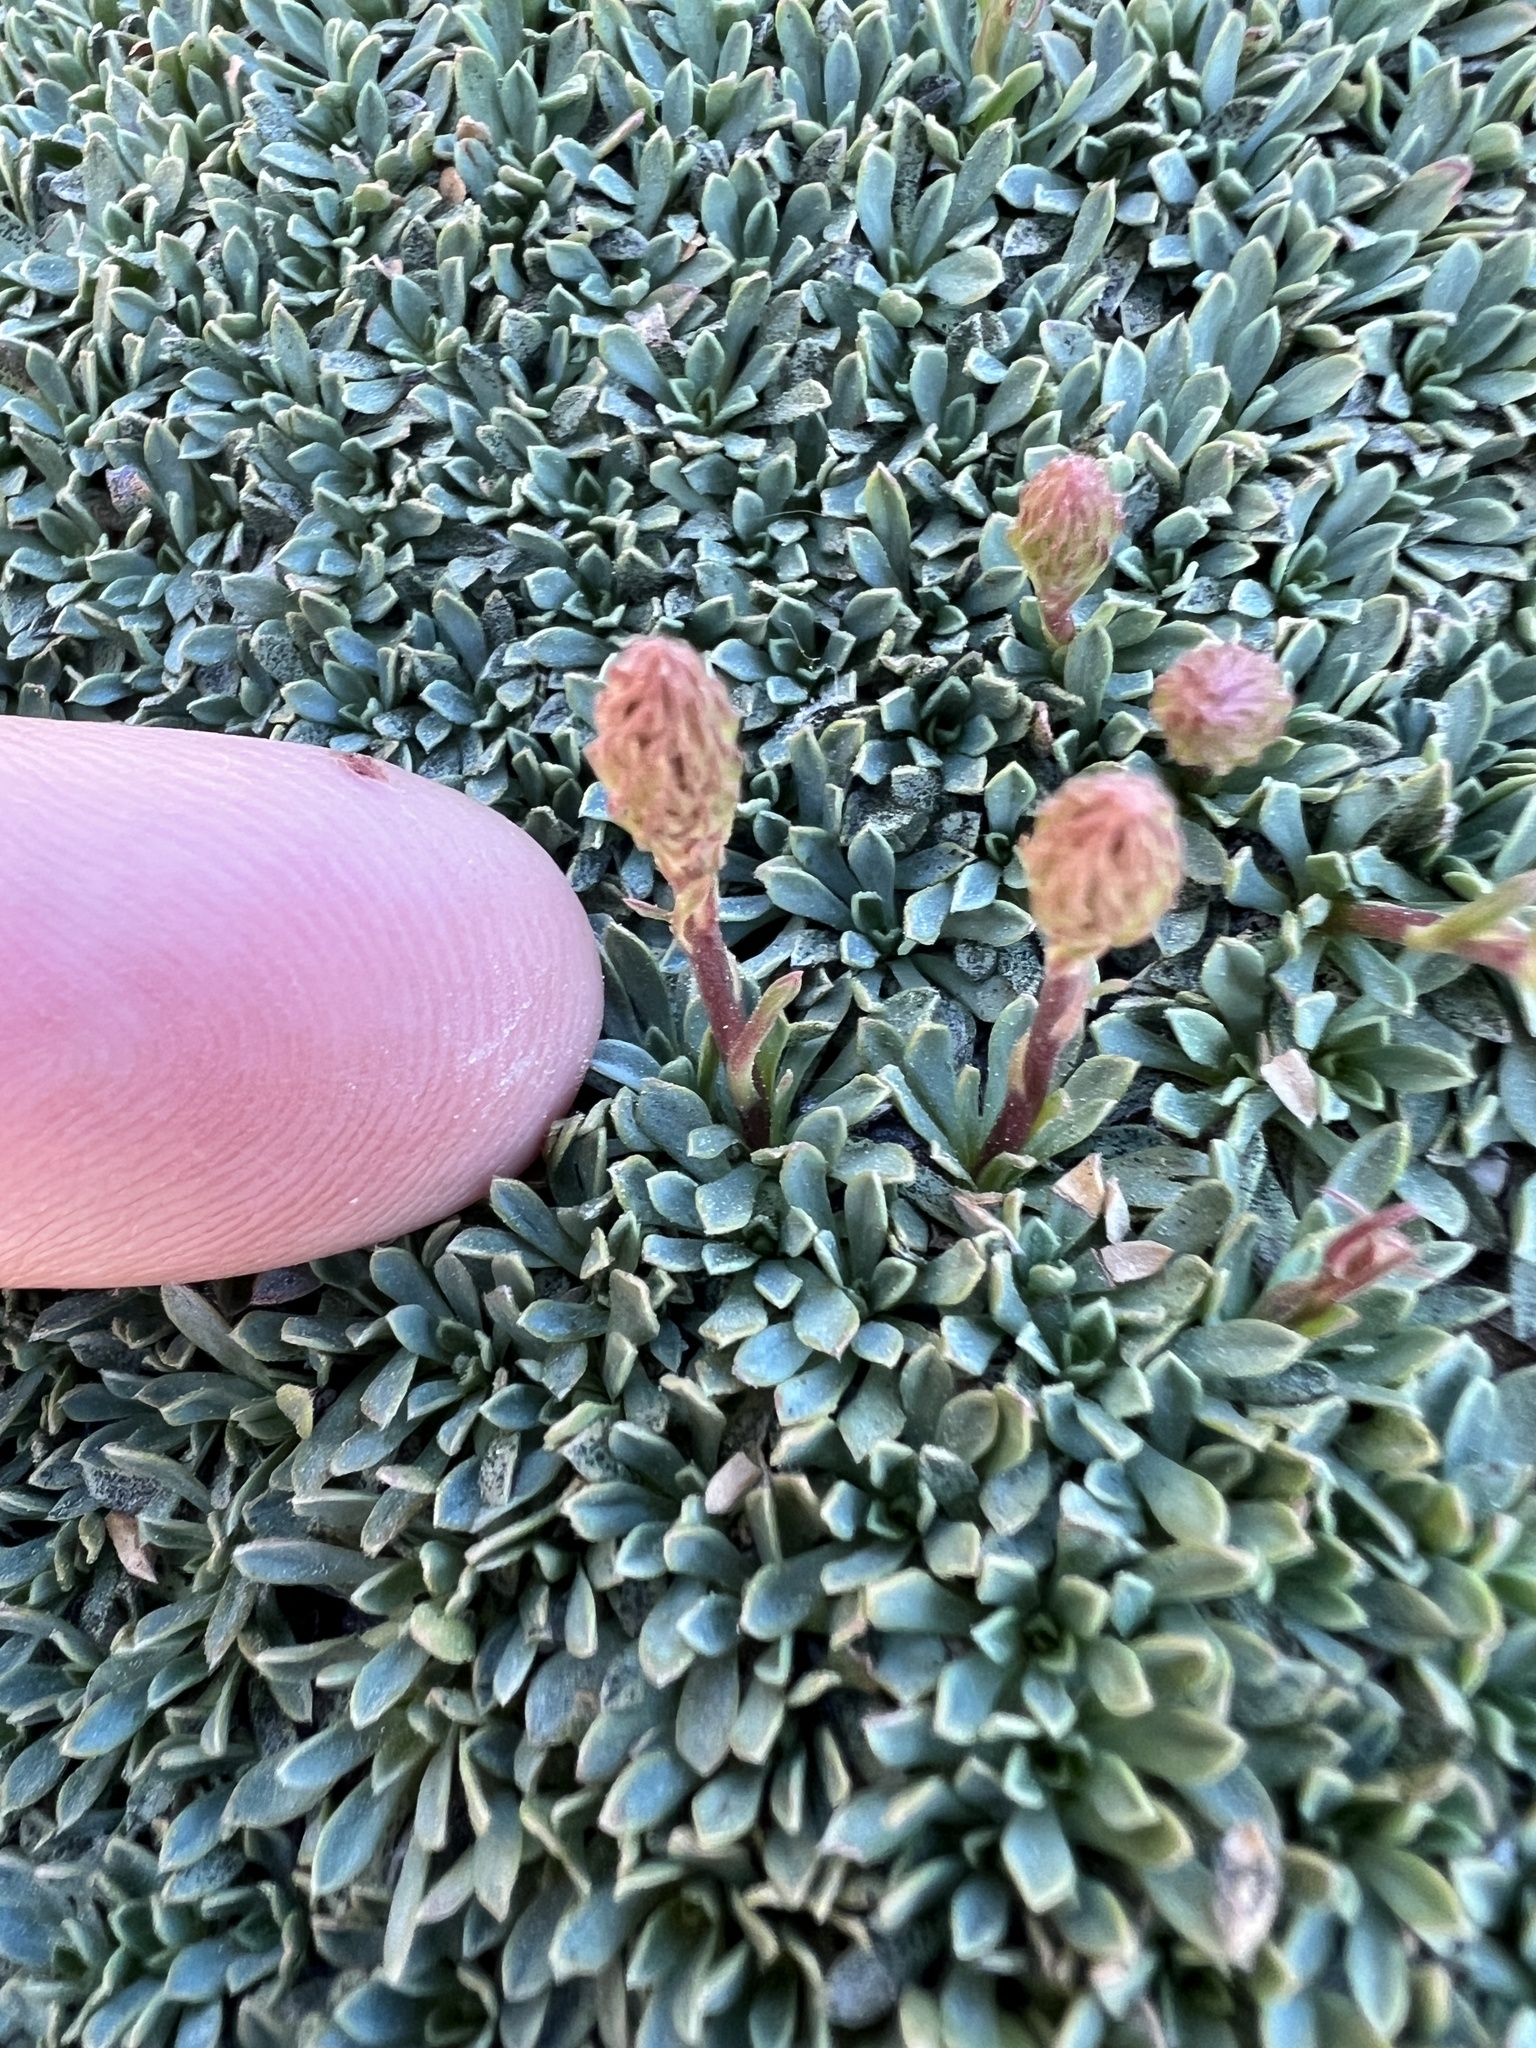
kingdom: Plantae
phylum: Tracheophyta
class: Magnoliopsida
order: Rosales
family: Rosaceae
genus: Petrophytum
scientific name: Petrophytum caespitosum
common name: Mat rockspirea
